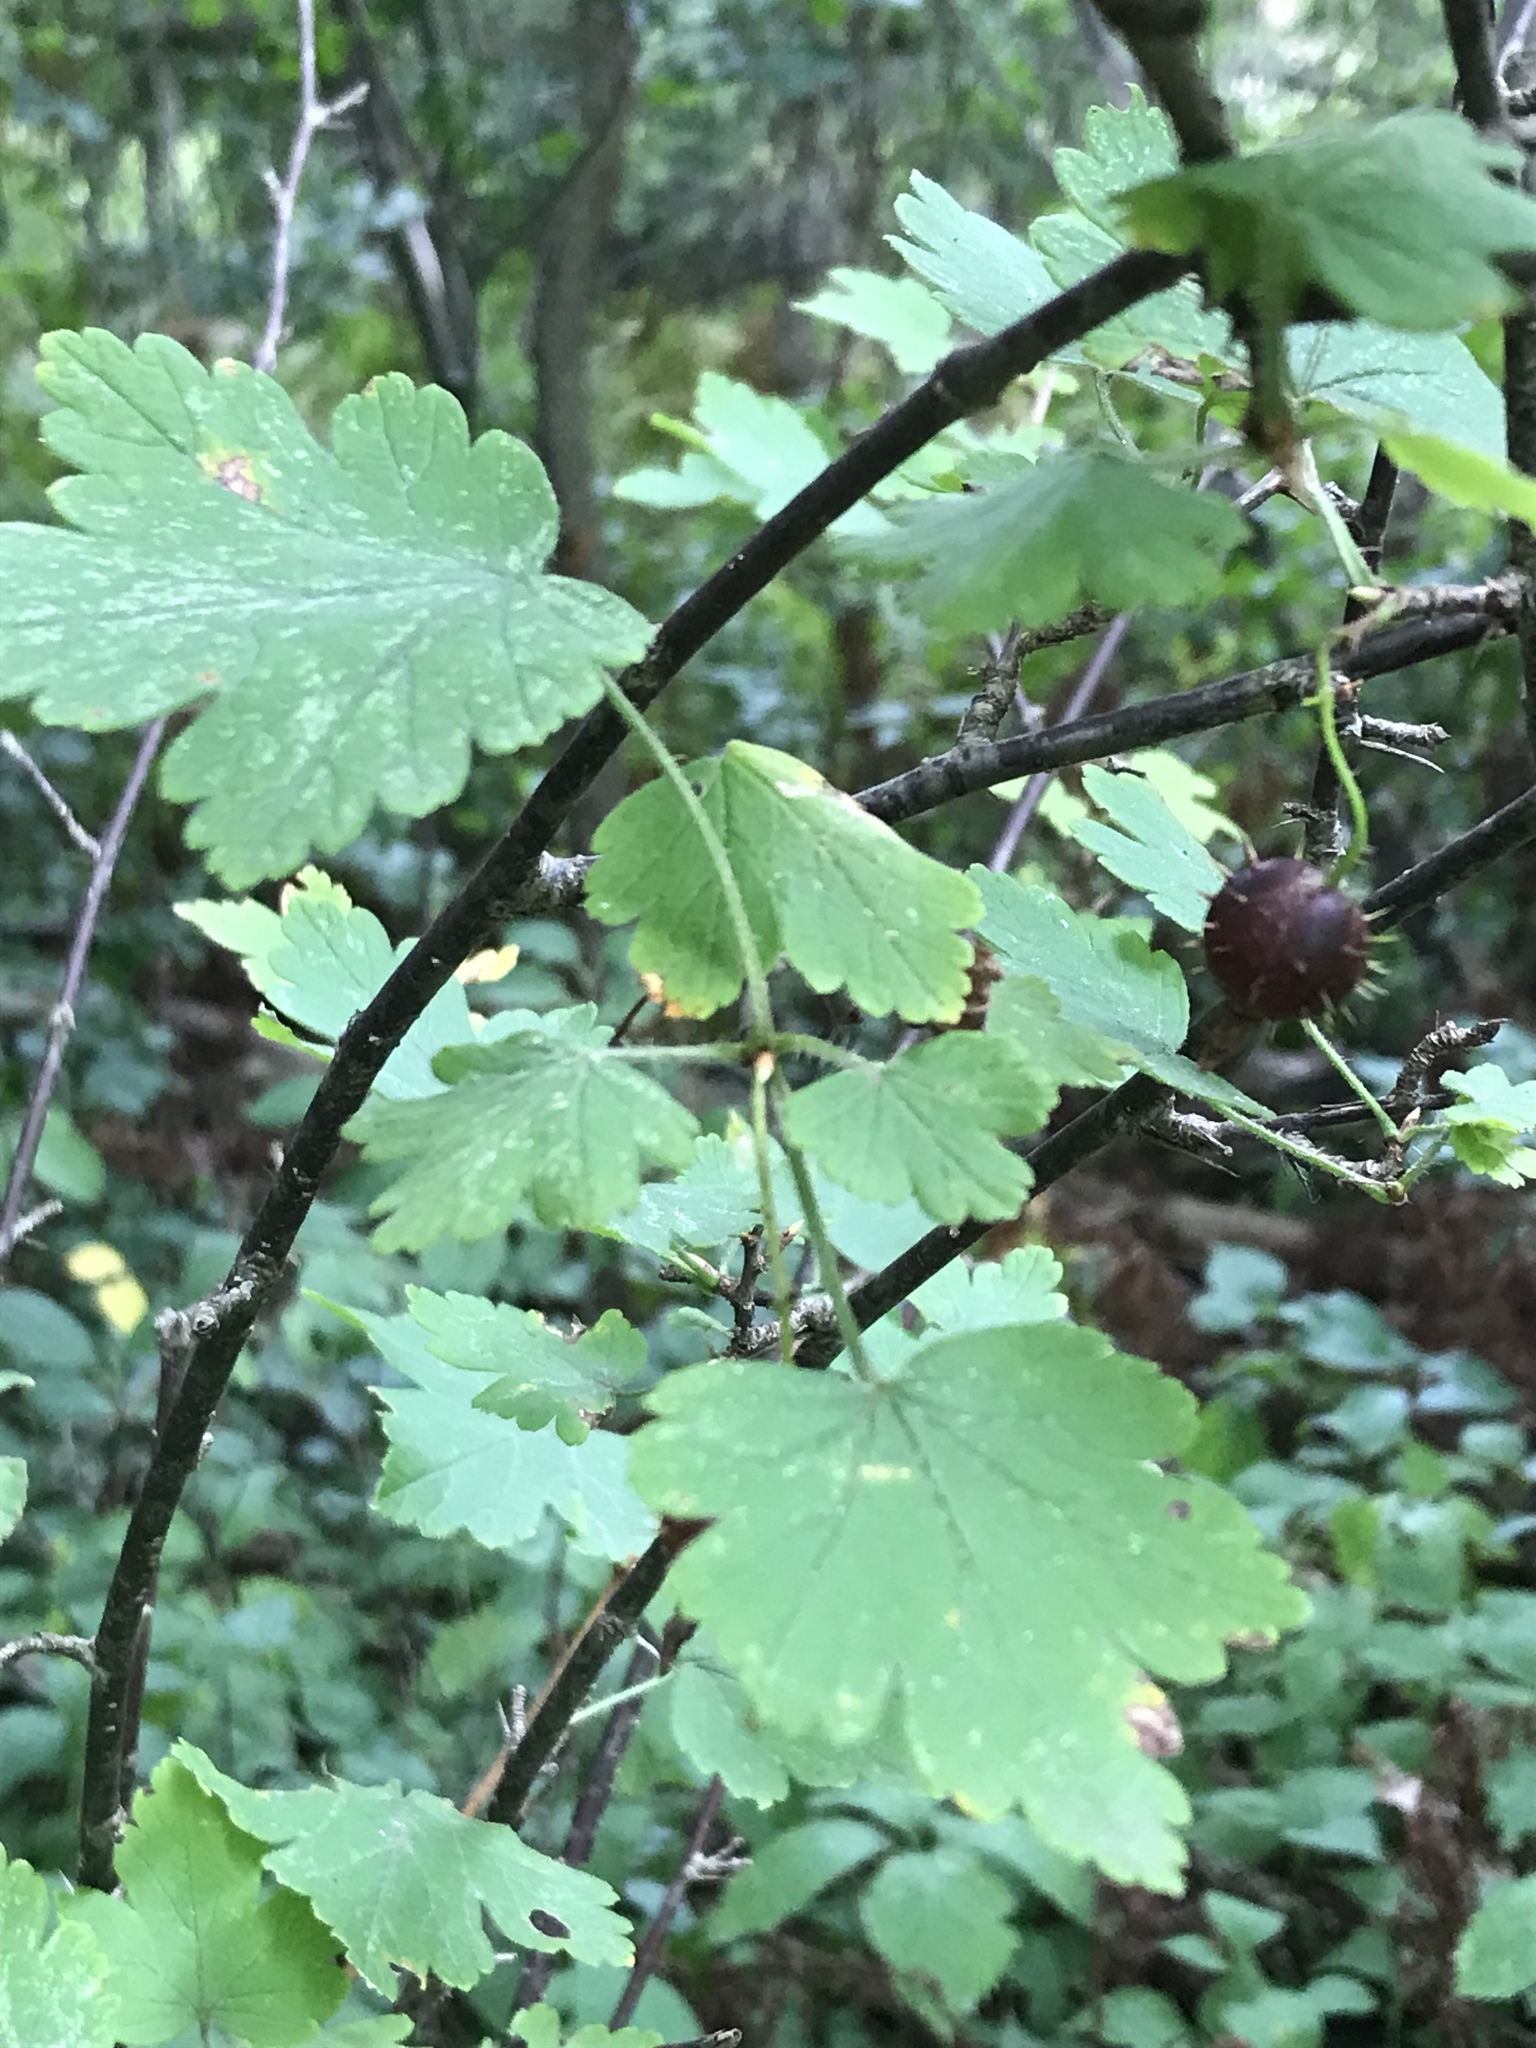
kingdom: Plantae
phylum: Tracheophyta
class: Magnoliopsida
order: Saxifragales
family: Grossulariaceae
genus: Ribes
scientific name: Ribes cynosbati
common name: American gooseberry
